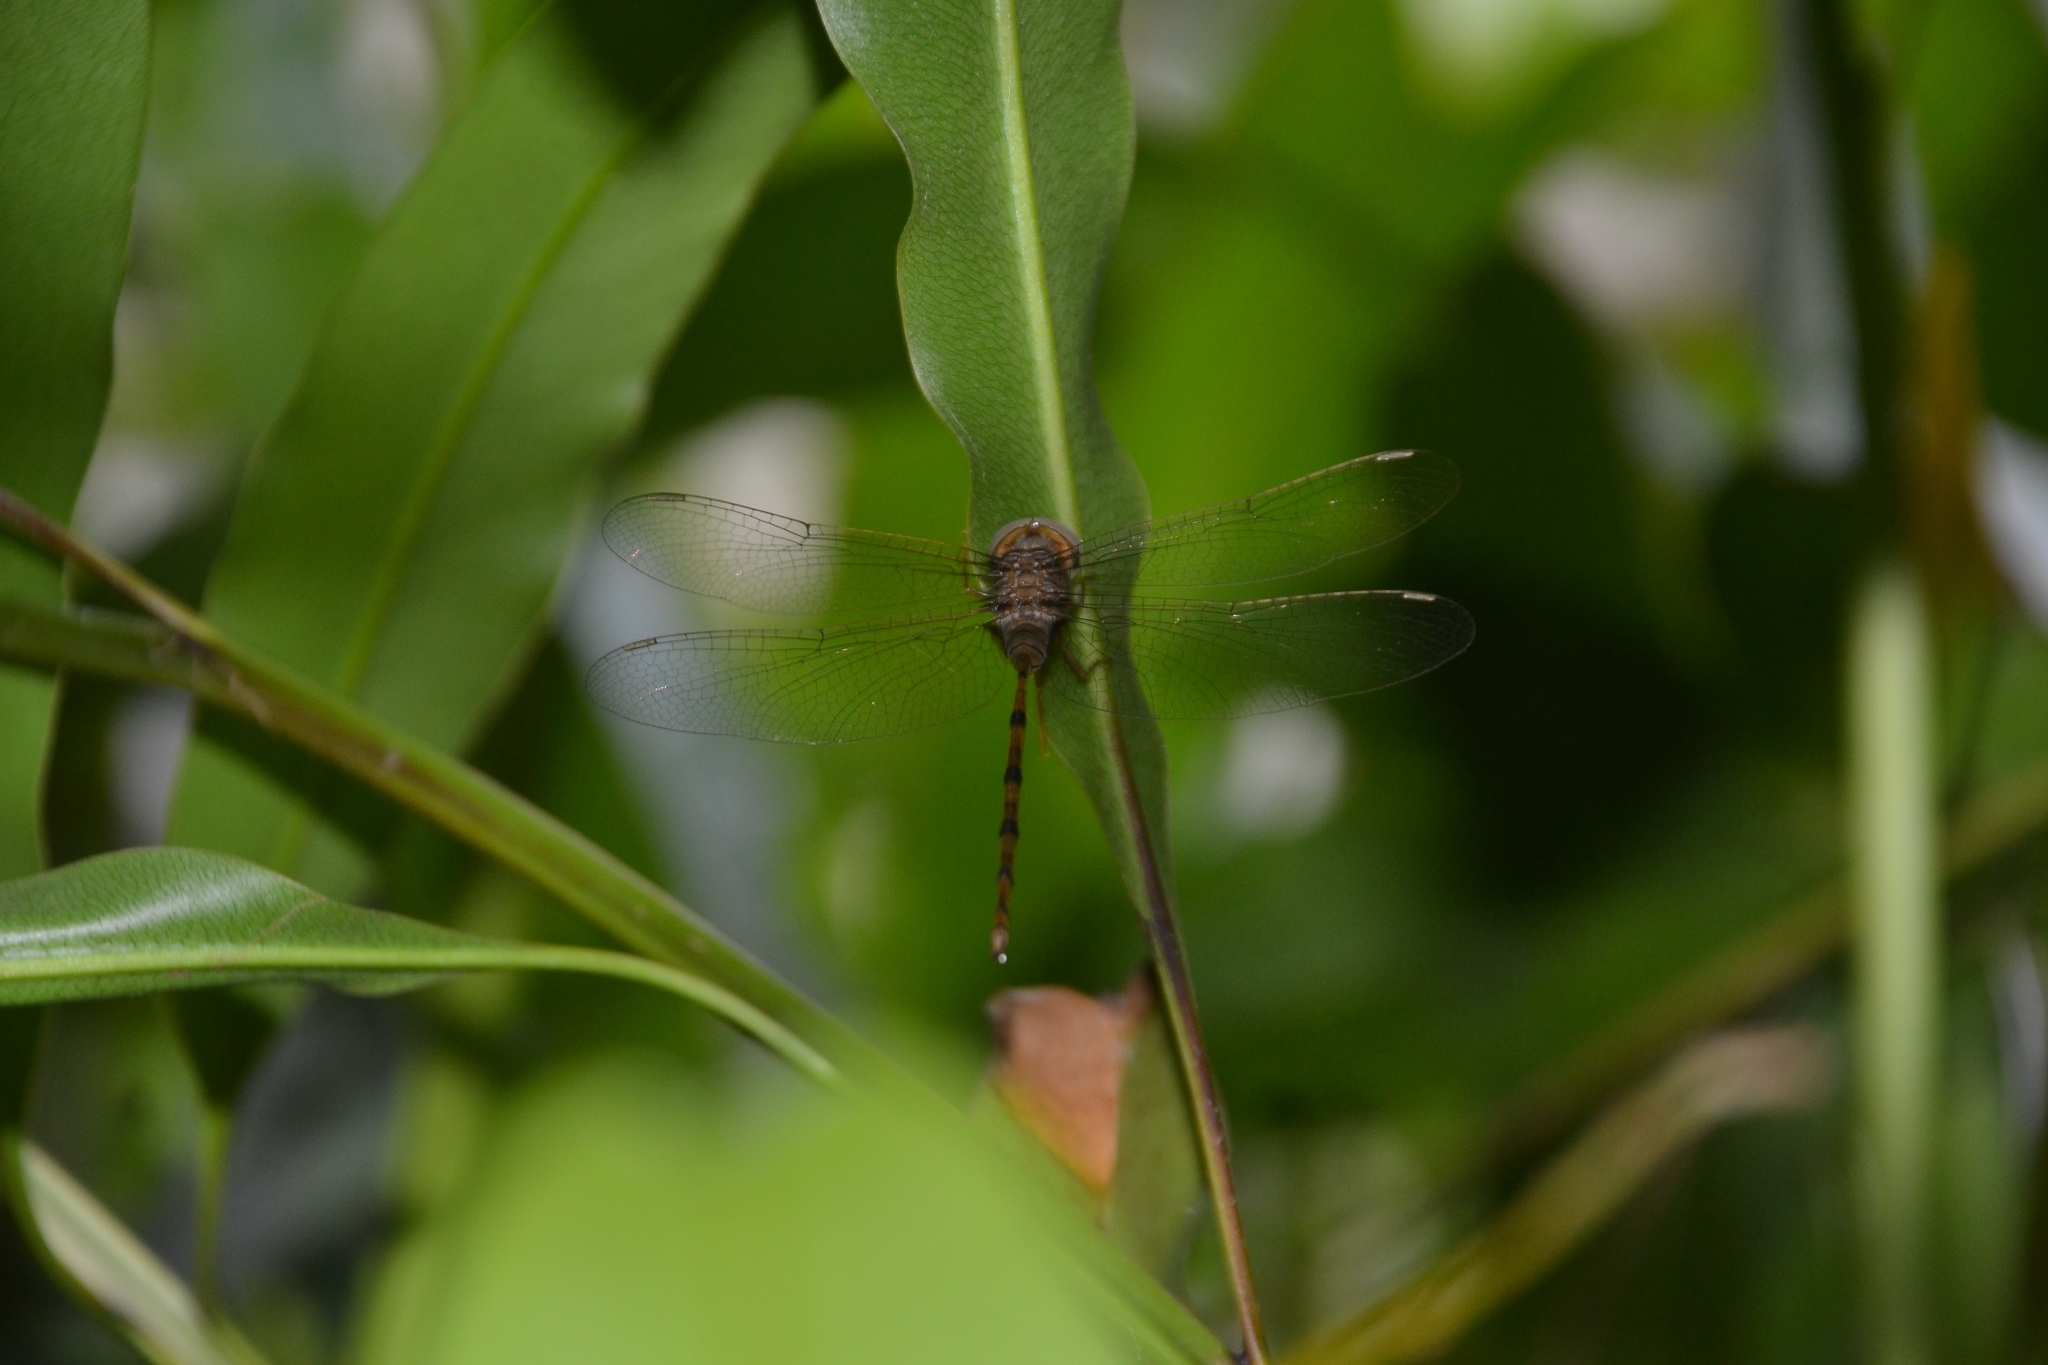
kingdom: Animalia
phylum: Arthropoda
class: Insecta
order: Odonata
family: Libellulidae
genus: Zyxomma
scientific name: Zyxomma petiolatum
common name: Dingy dusk-darter
